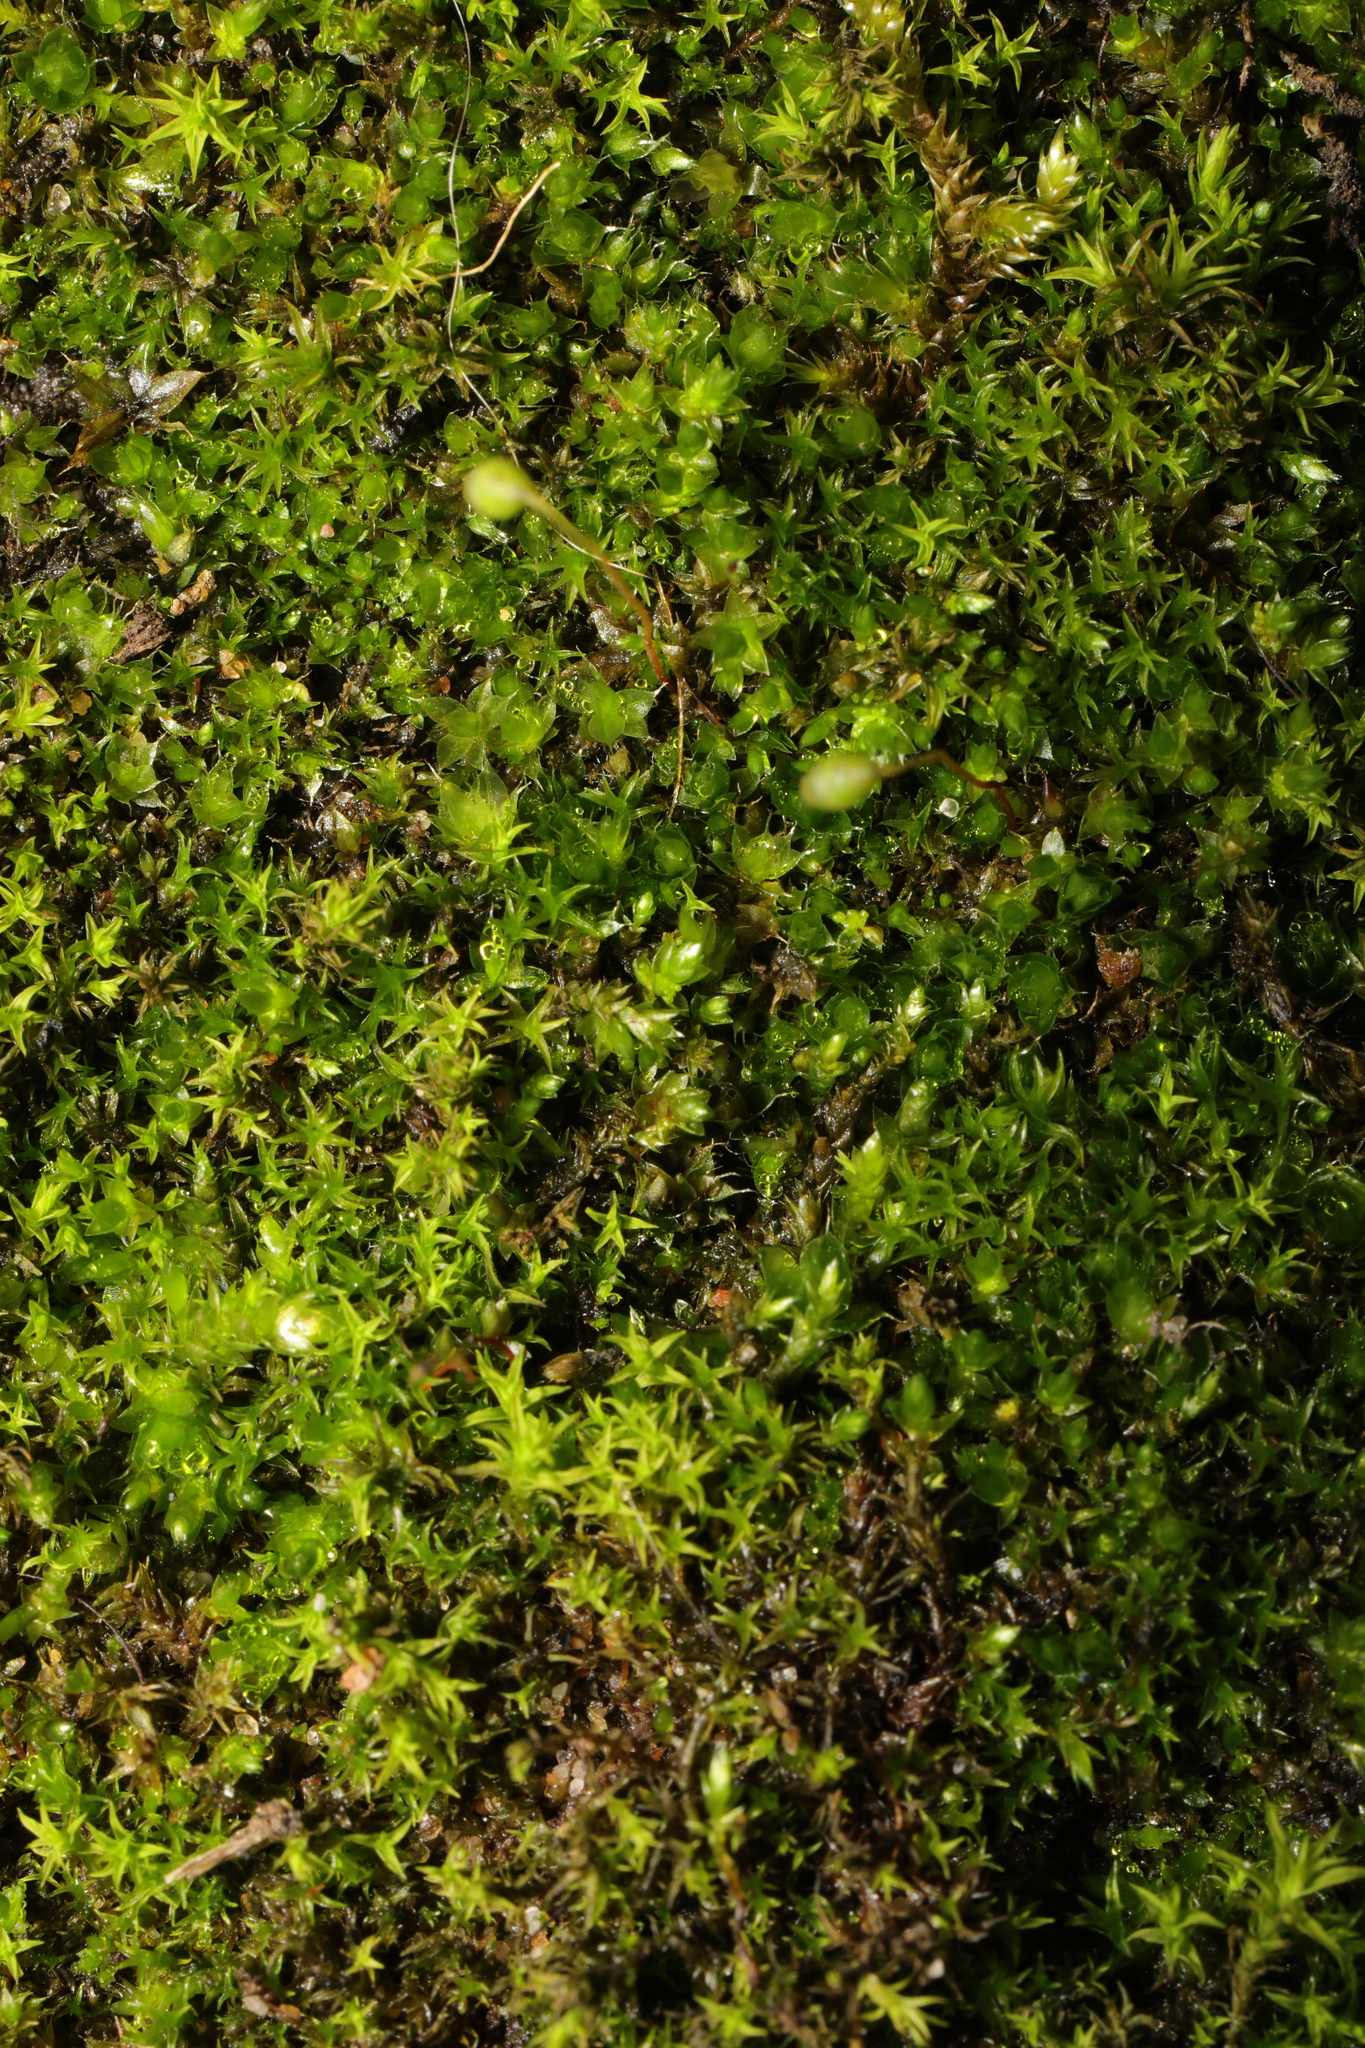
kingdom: Plantae
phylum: Bryophyta
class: Bryopsida
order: Bryales
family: Bryaceae
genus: Rosulabryum
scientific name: Rosulabryum capillare
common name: Capillary thread-moss
